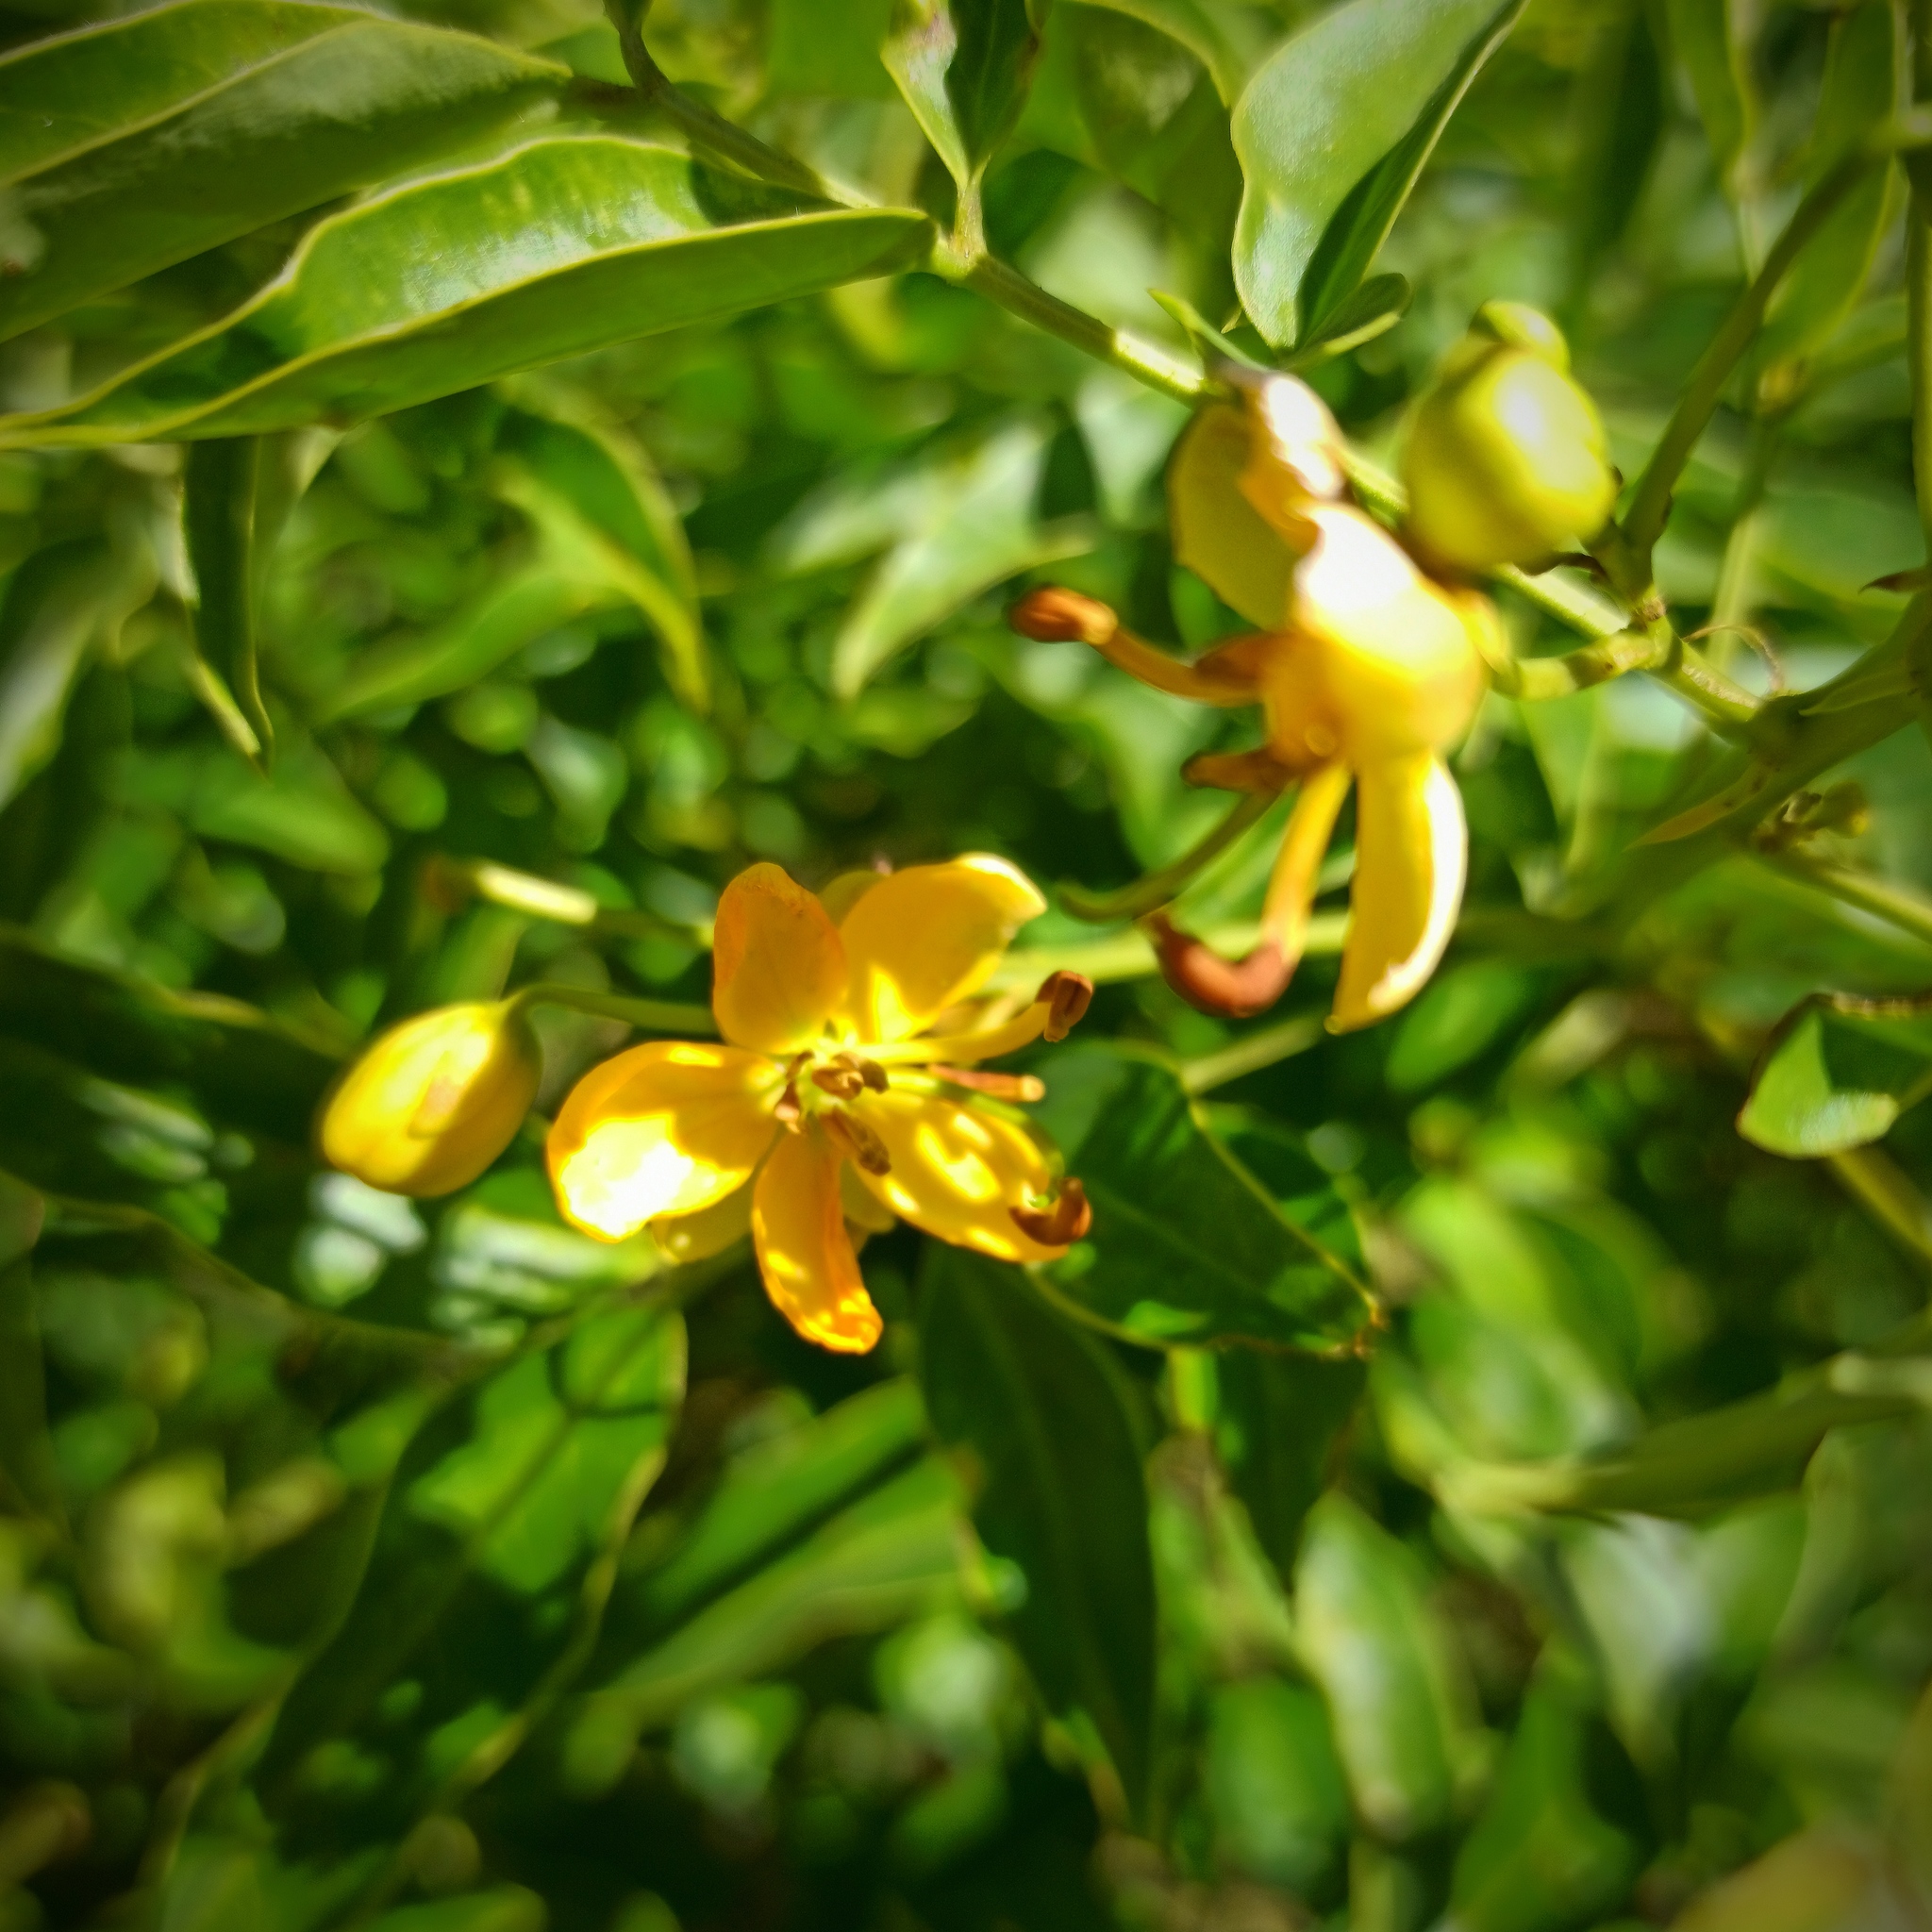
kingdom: Plantae
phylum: Tracheophyta
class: Magnoliopsida
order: Fabales
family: Fabaceae
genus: Senna
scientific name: Senna septemtrionalis
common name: Arsenic bush
